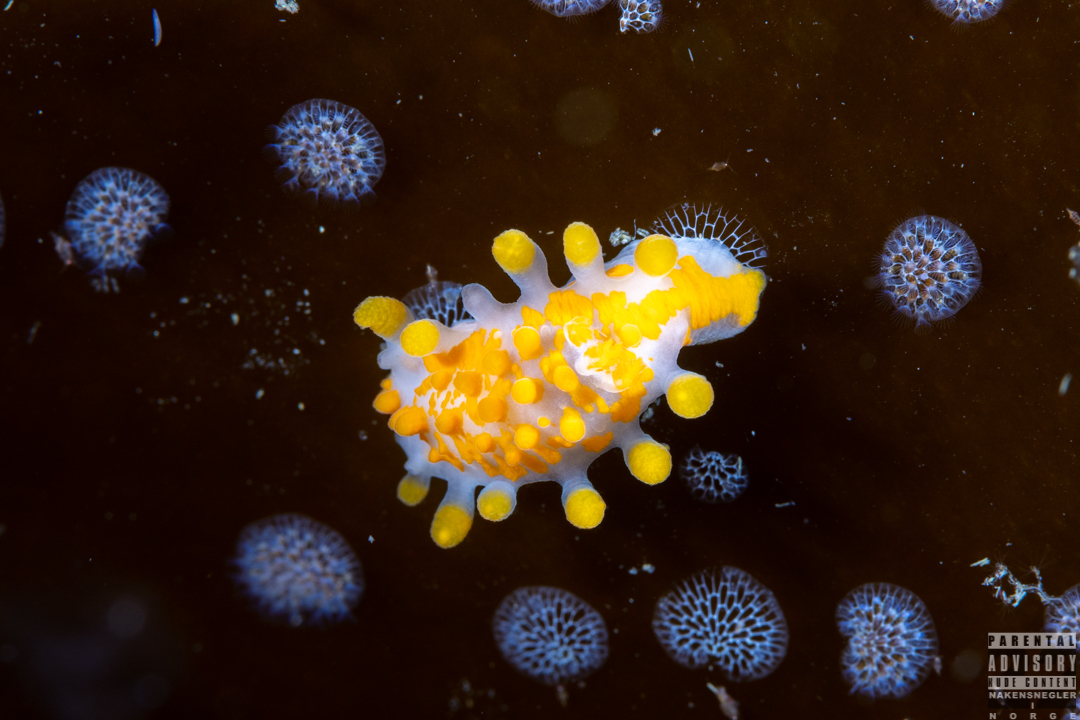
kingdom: Animalia
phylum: Mollusca
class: Gastropoda
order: Nudibranchia
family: Polyceridae
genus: Limacia
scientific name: Limacia clavigera
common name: Orange-clubbed sea slug
